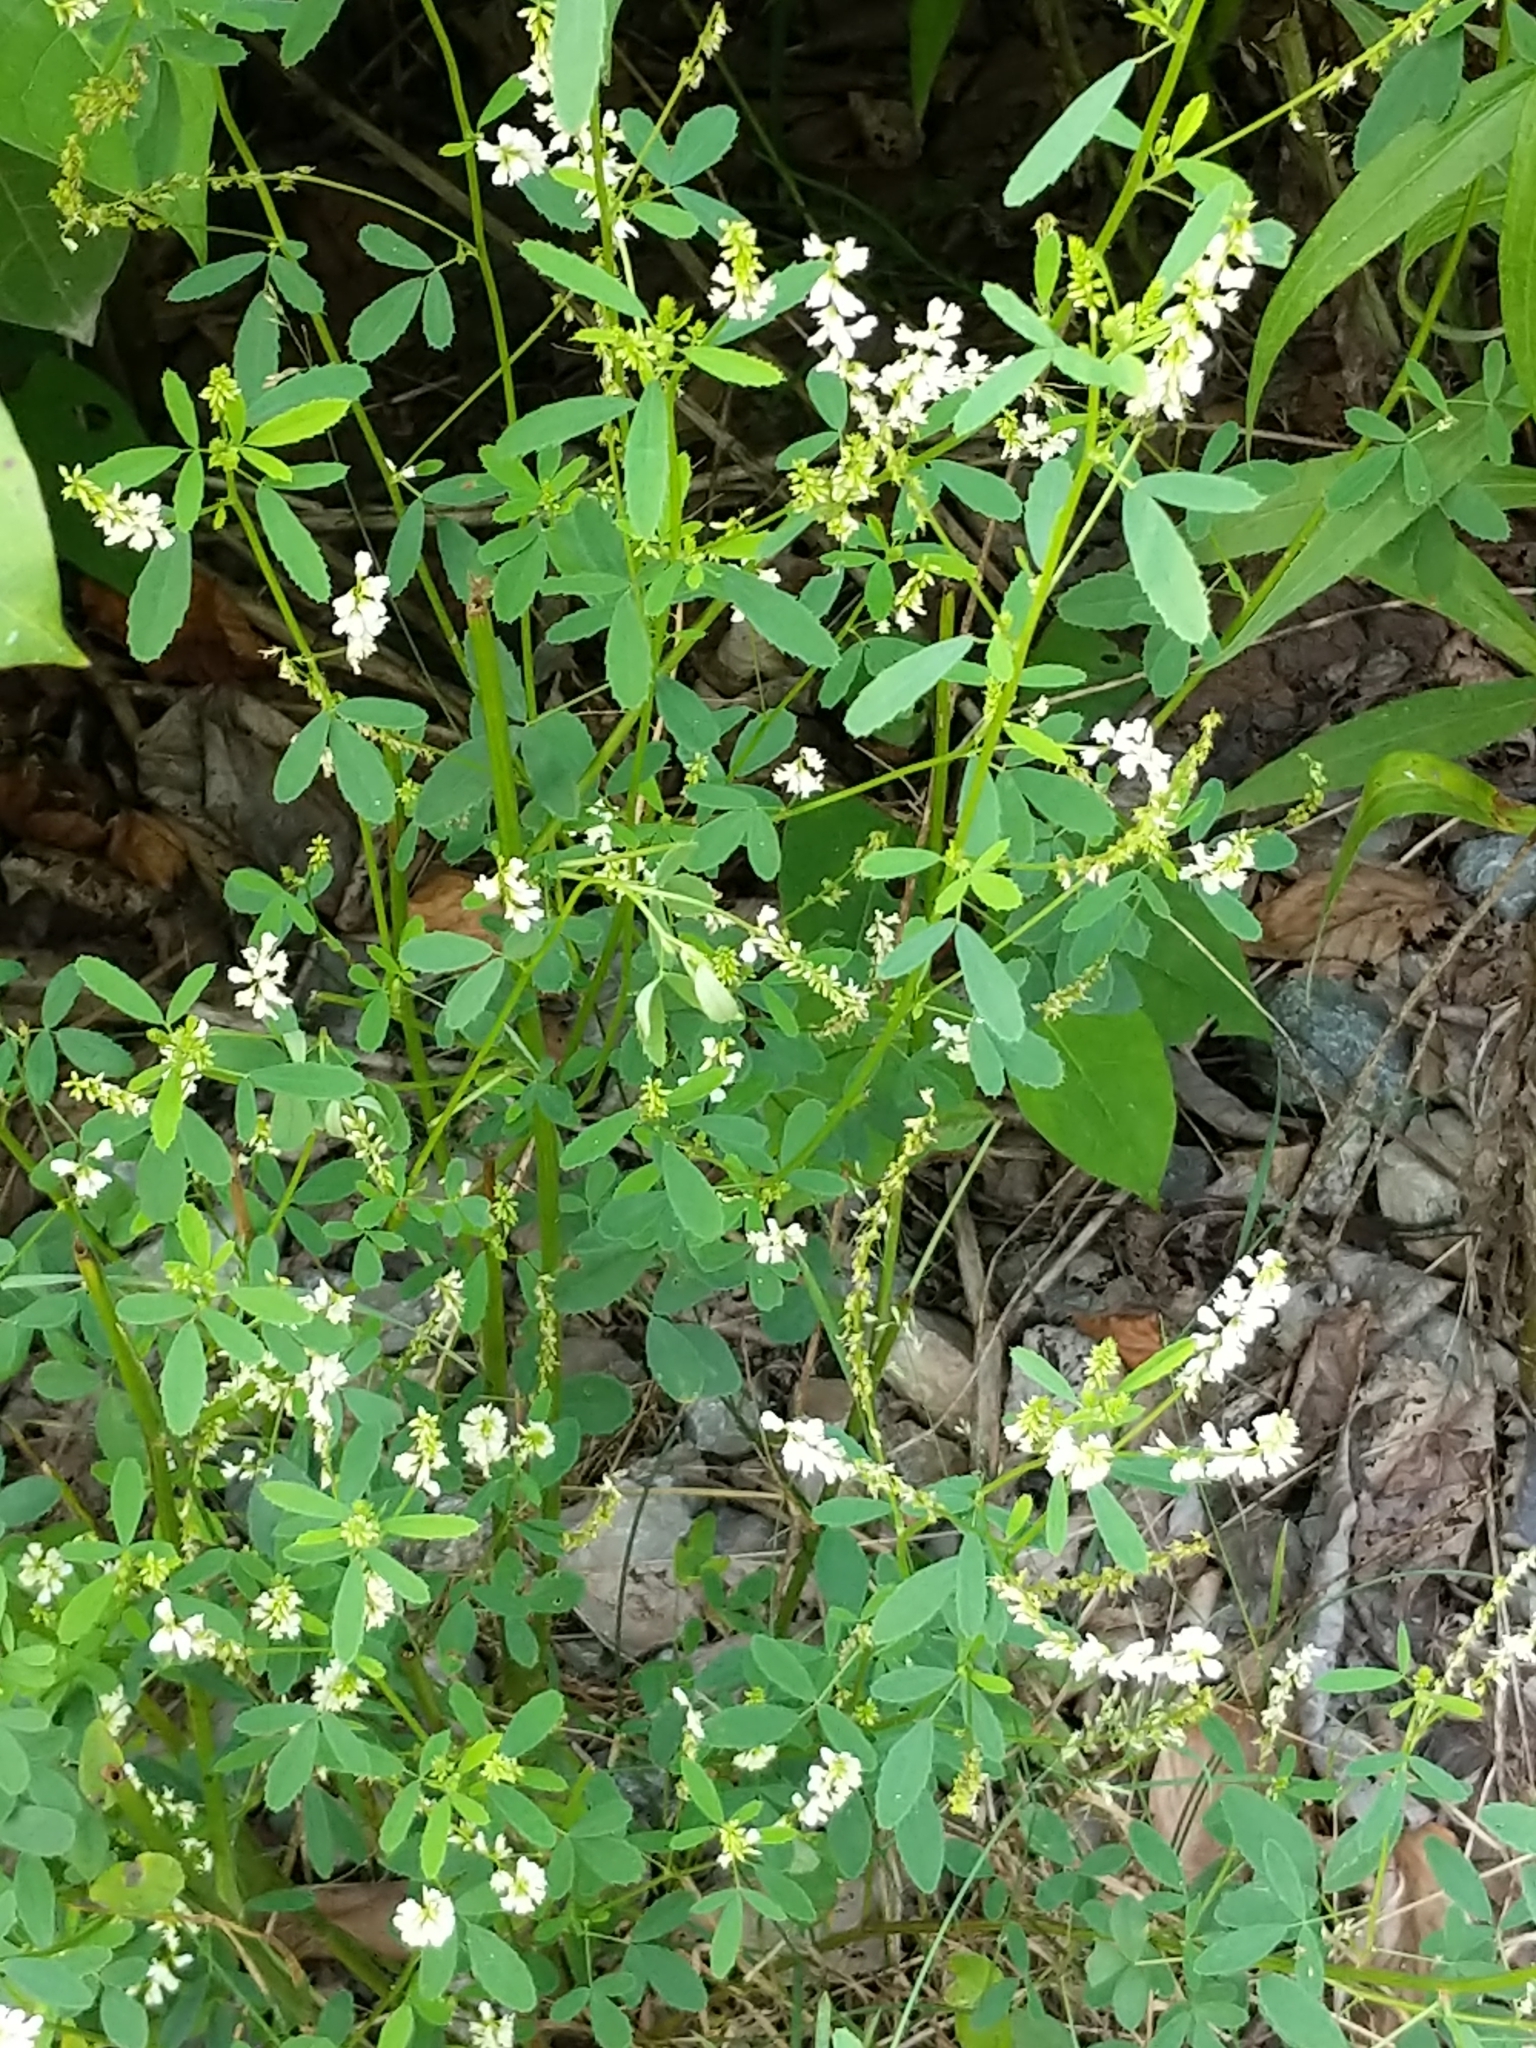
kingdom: Plantae
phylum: Tracheophyta
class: Magnoliopsida
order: Fabales
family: Fabaceae
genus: Melilotus
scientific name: Melilotus albus
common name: White melilot
